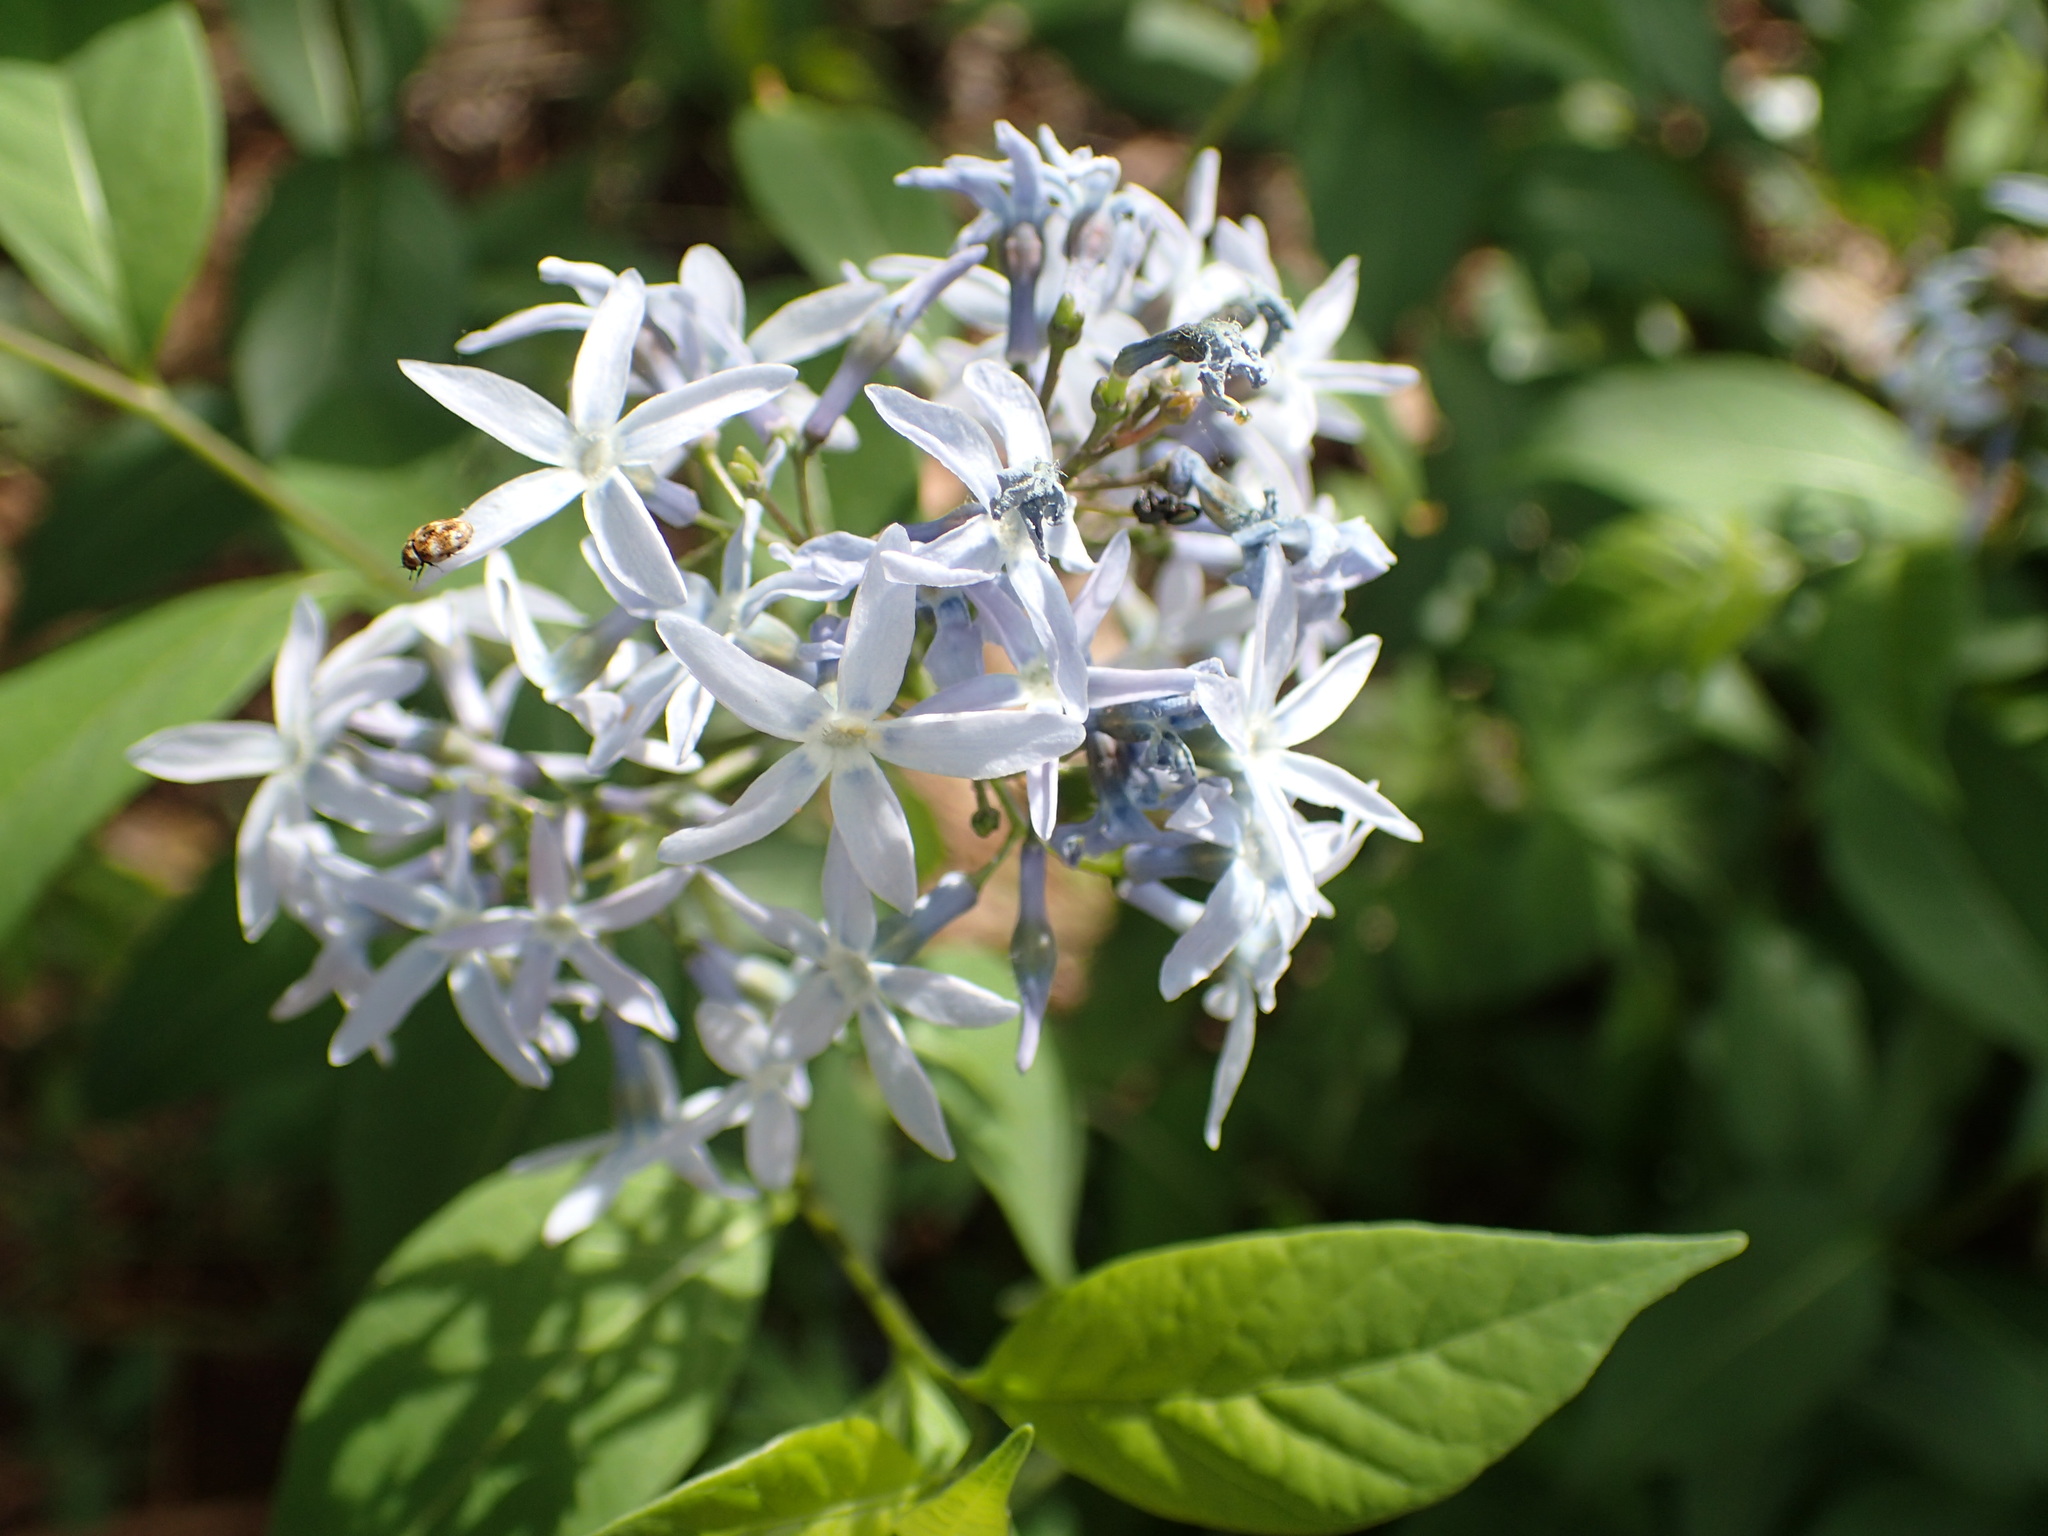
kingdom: Plantae
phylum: Tracheophyta
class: Magnoliopsida
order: Gentianales
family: Apocynaceae
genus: Amsonia
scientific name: Amsonia tabernaemontana
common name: Texas-star
